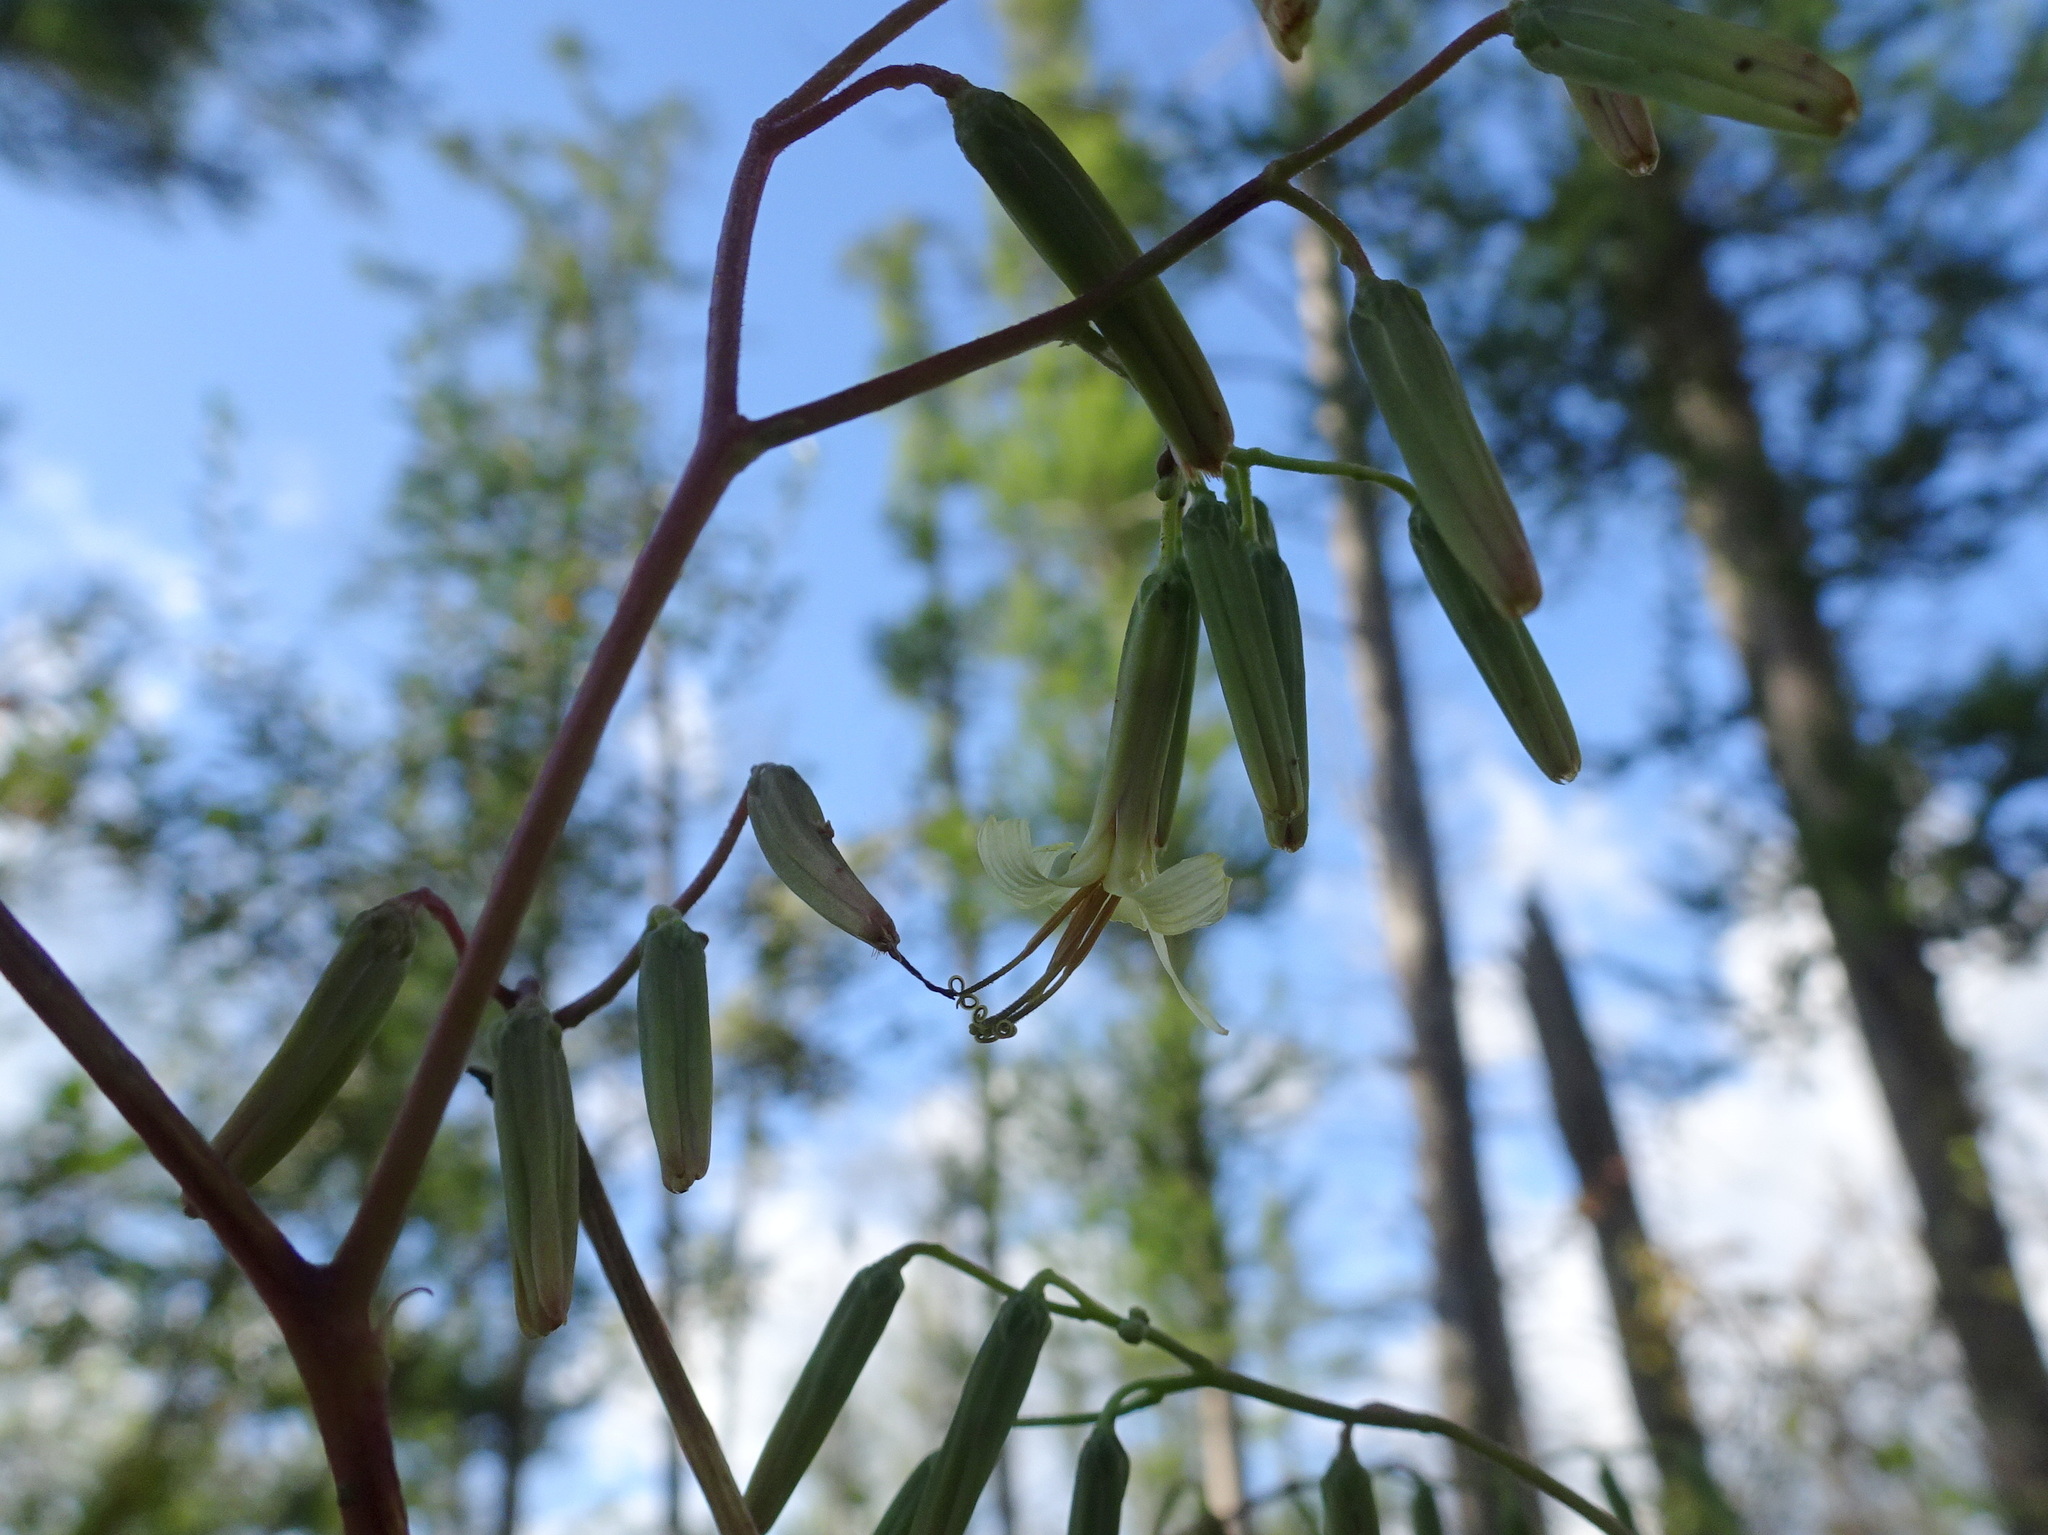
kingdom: Plantae
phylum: Tracheophyta
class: Magnoliopsida
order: Asterales
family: Asteraceae
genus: Nabalus
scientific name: Nabalus altissima
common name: Tall rattlesnakeroot
